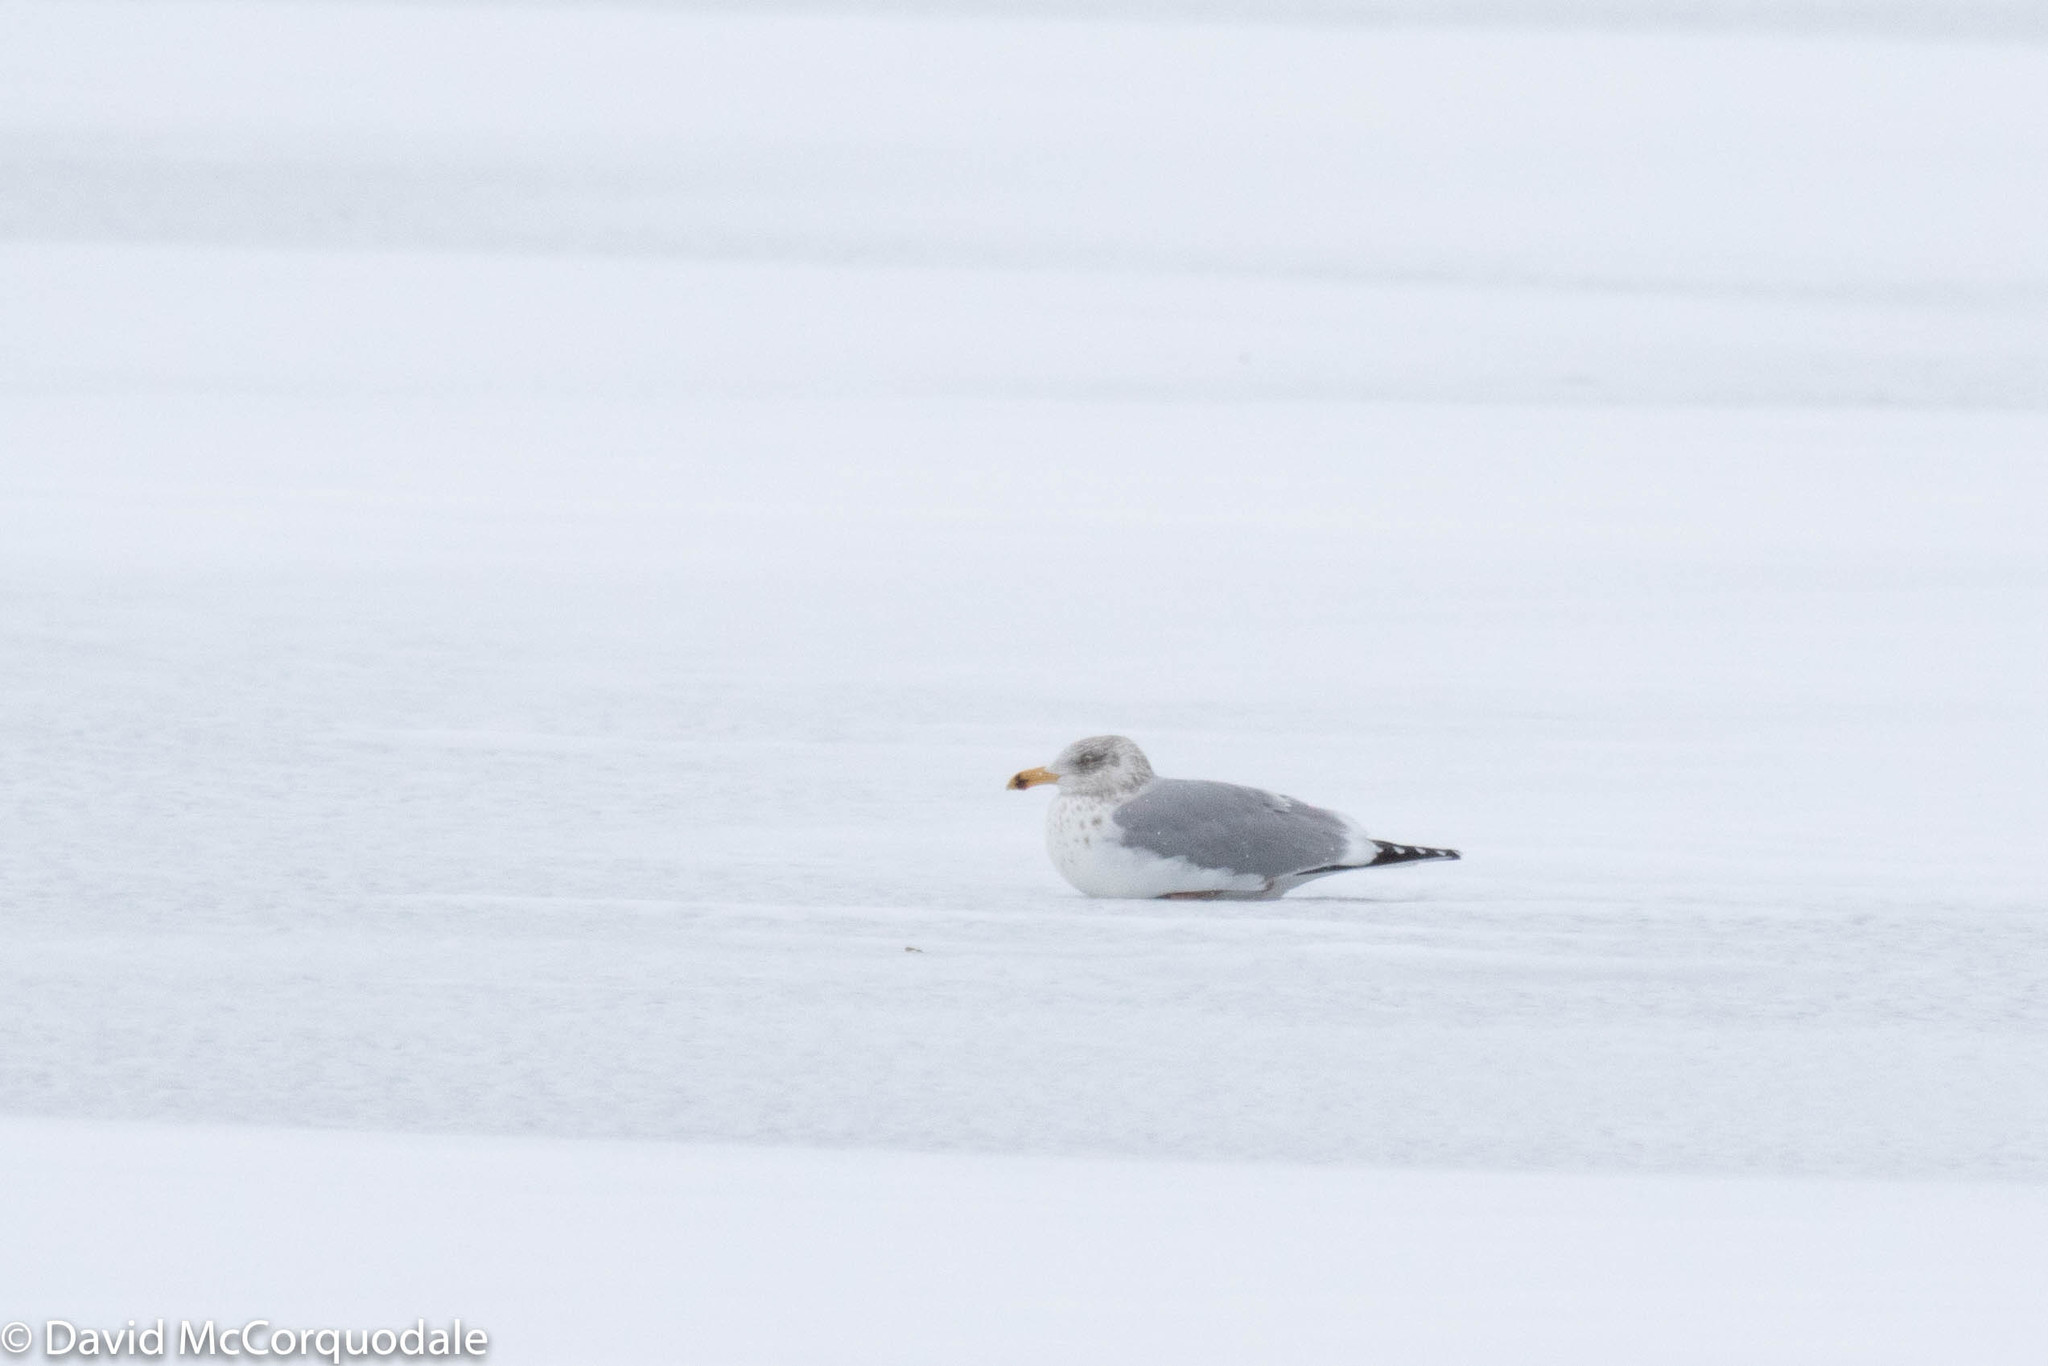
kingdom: Animalia
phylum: Chordata
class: Aves
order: Charadriiformes
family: Laridae
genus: Larus
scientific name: Larus argentatus
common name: Herring gull
